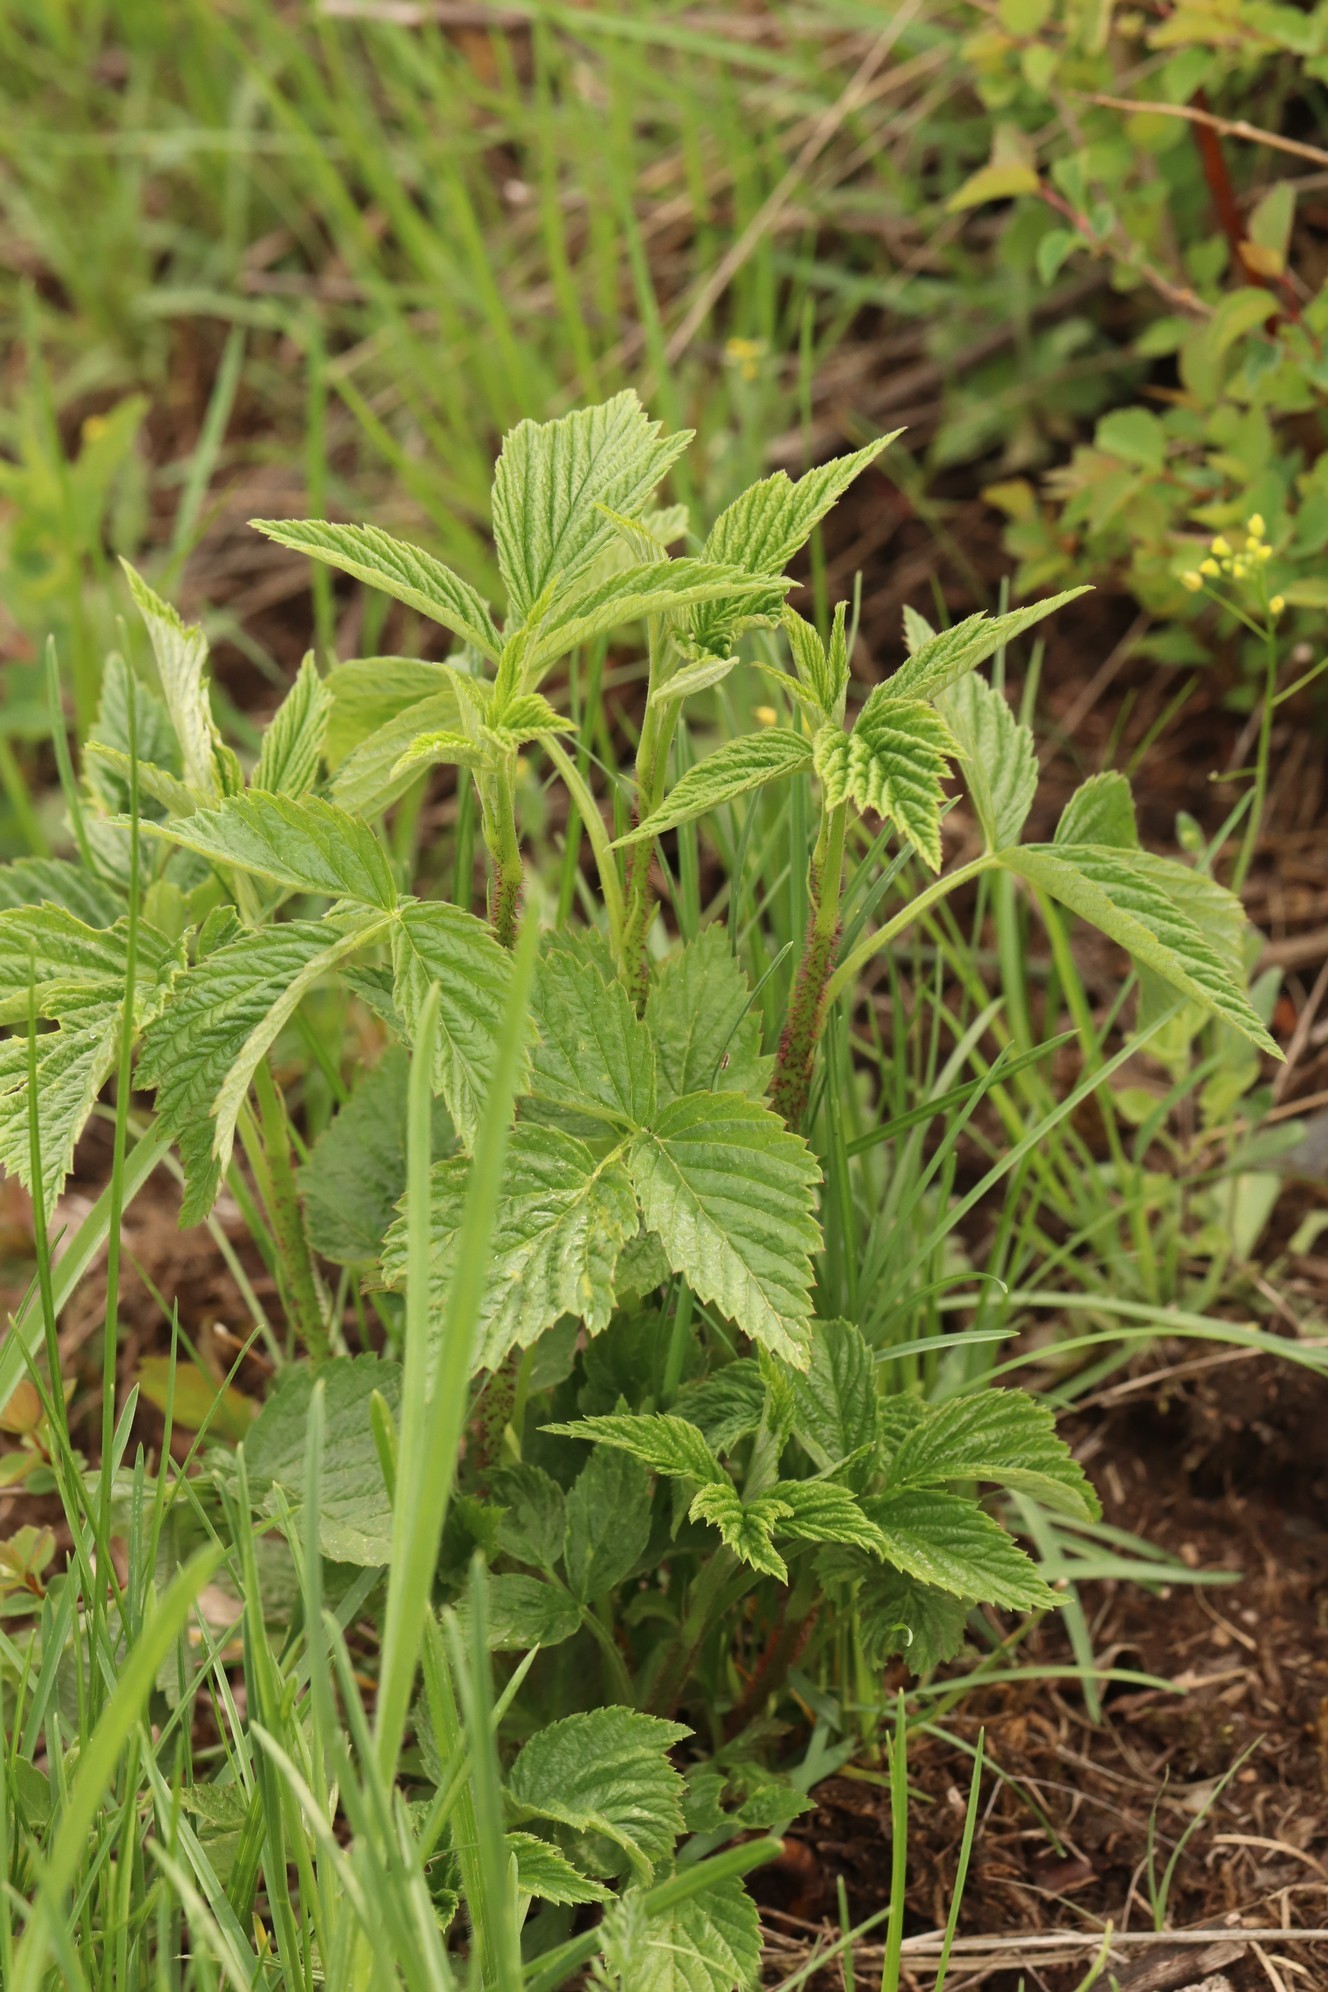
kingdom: Plantae
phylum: Tracheophyta
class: Magnoliopsida
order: Rosales
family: Rosaceae
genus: Rubus
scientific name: Rubus saxatilis
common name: Stone bramble
